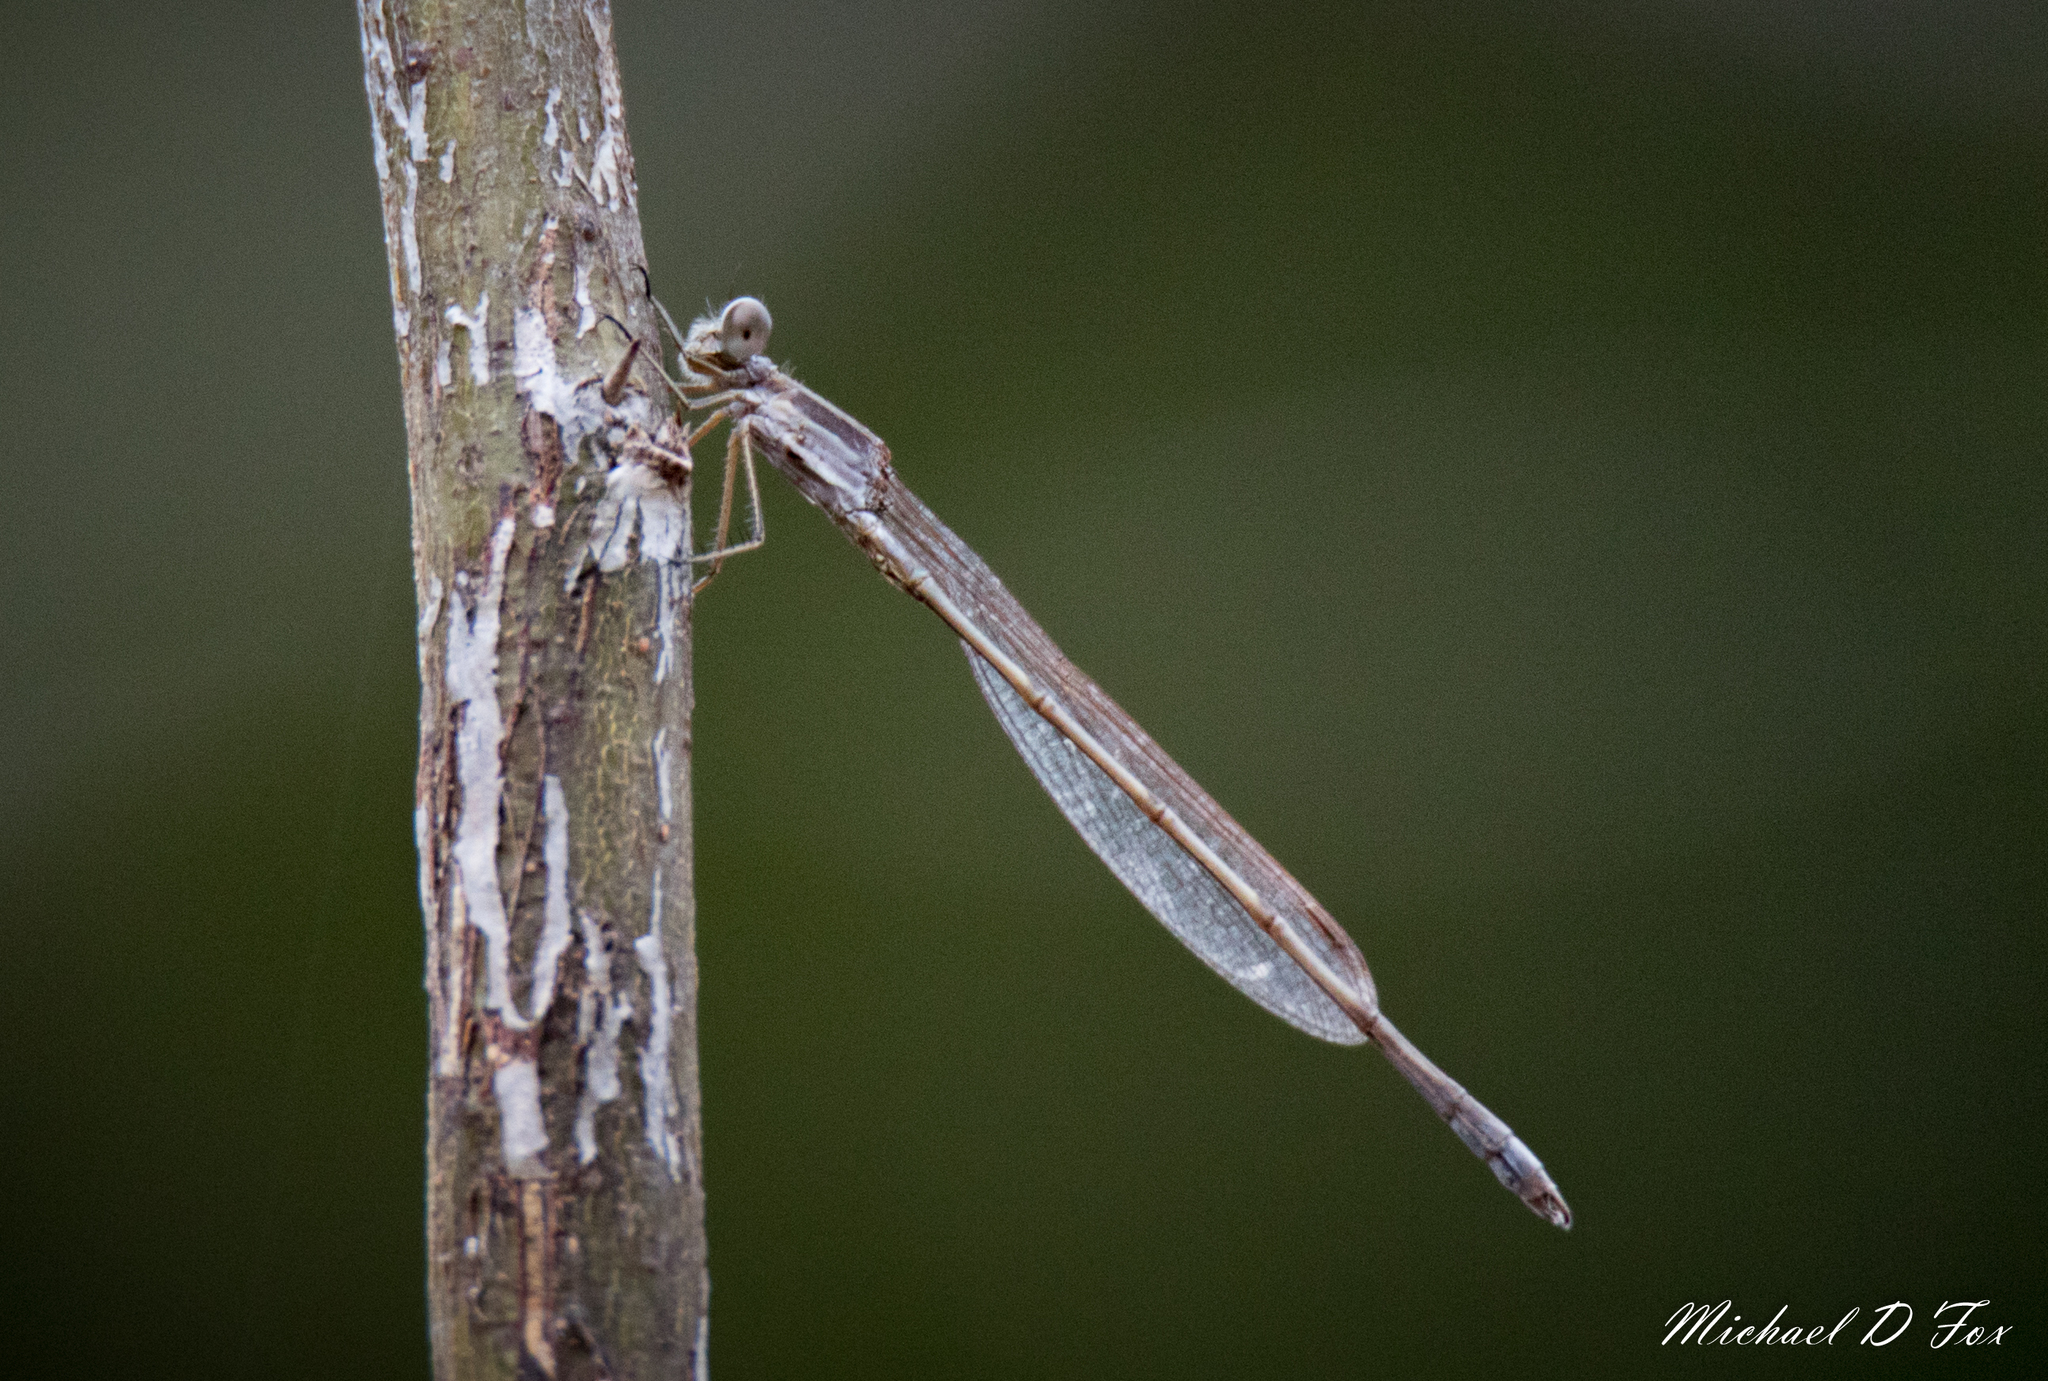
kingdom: Animalia
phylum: Arthropoda
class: Insecta
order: Odonata
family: Lestidae
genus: Lestes
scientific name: Lestes australis
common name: Southern spreadwing
